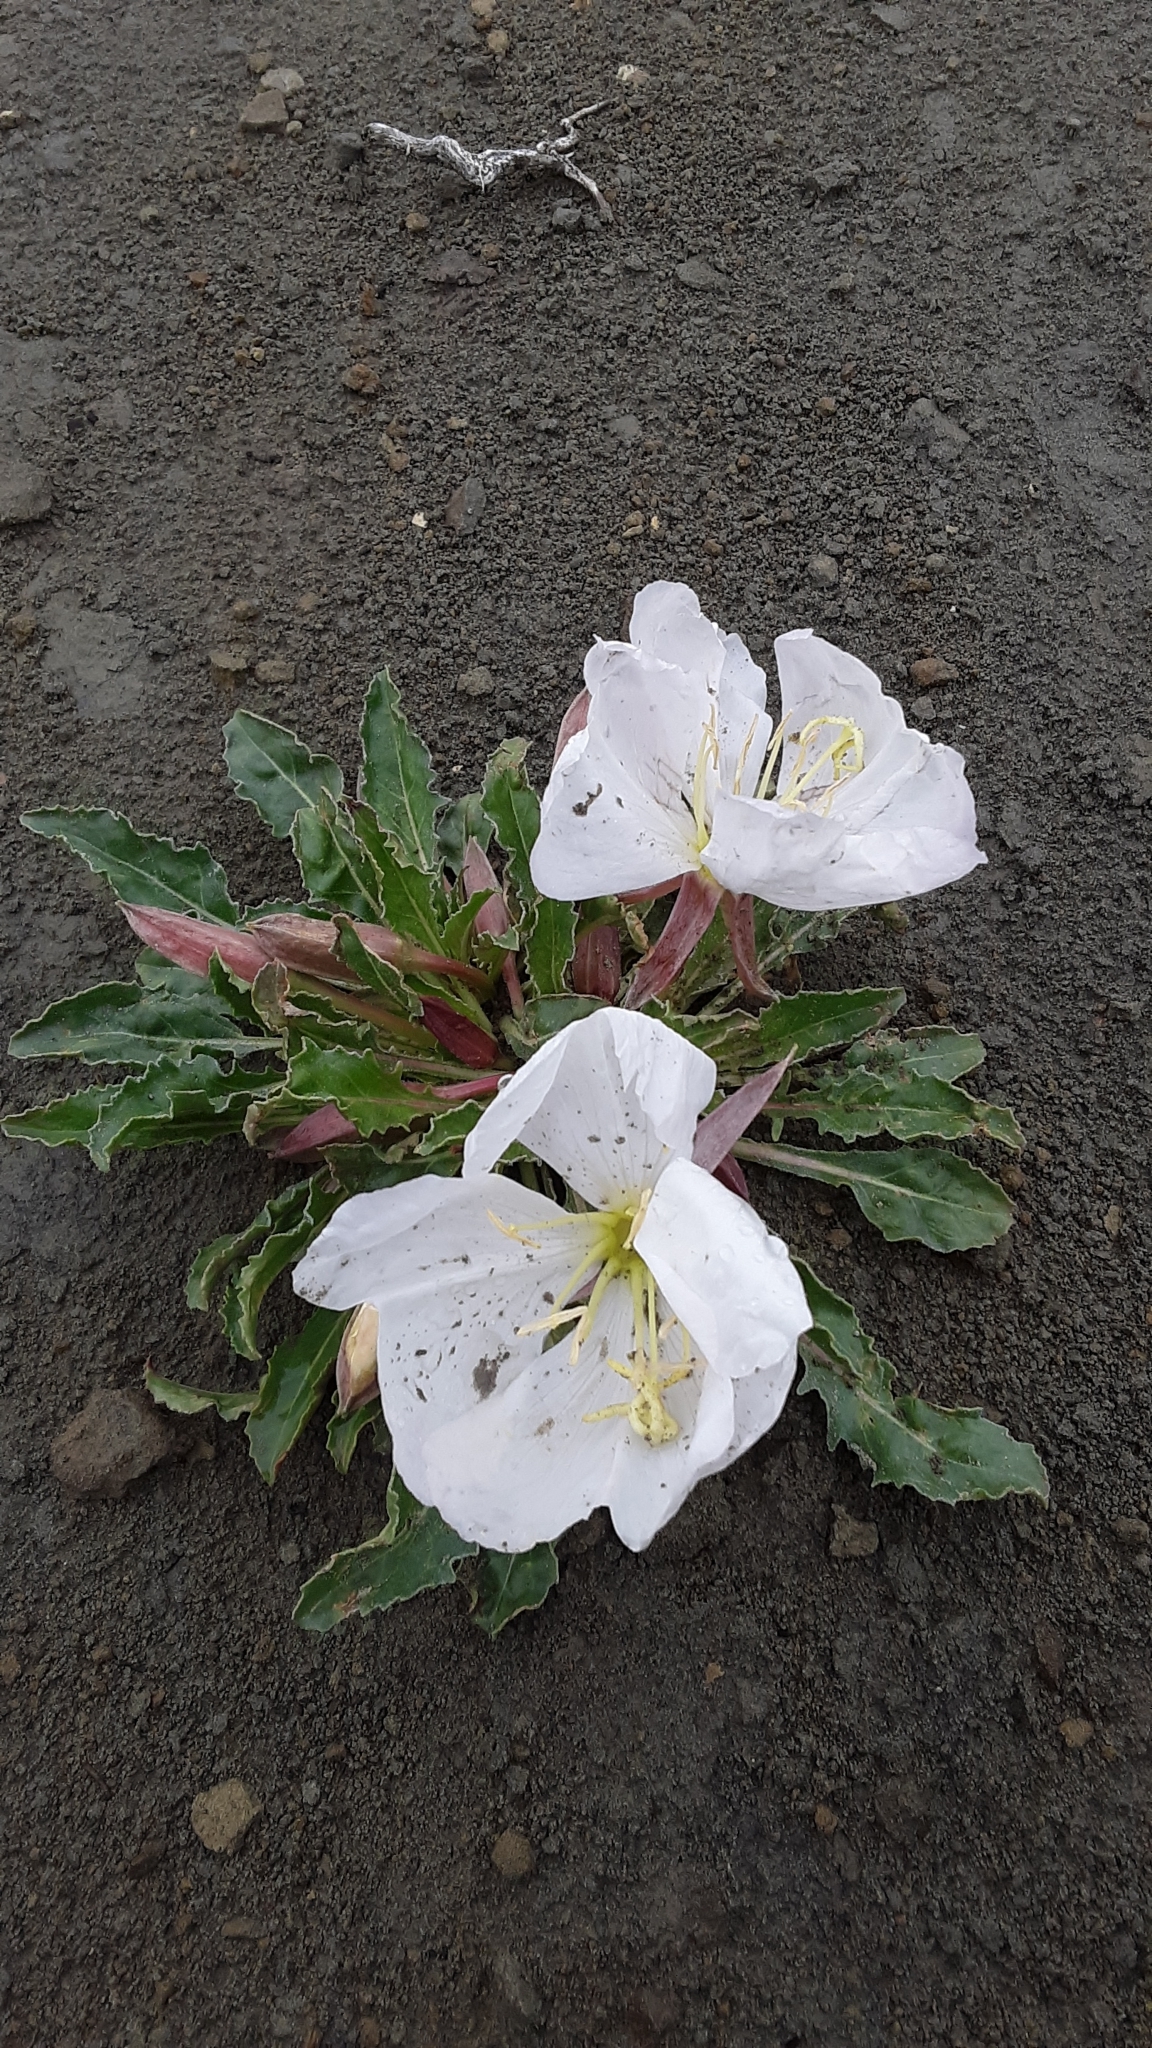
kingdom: Plantae
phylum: Tracheophyta
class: Magnoliopsida
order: Myrtales
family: Onagraceae
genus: Oenothera
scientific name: Oenothera cespitosa
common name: Tufted evening-primrose
